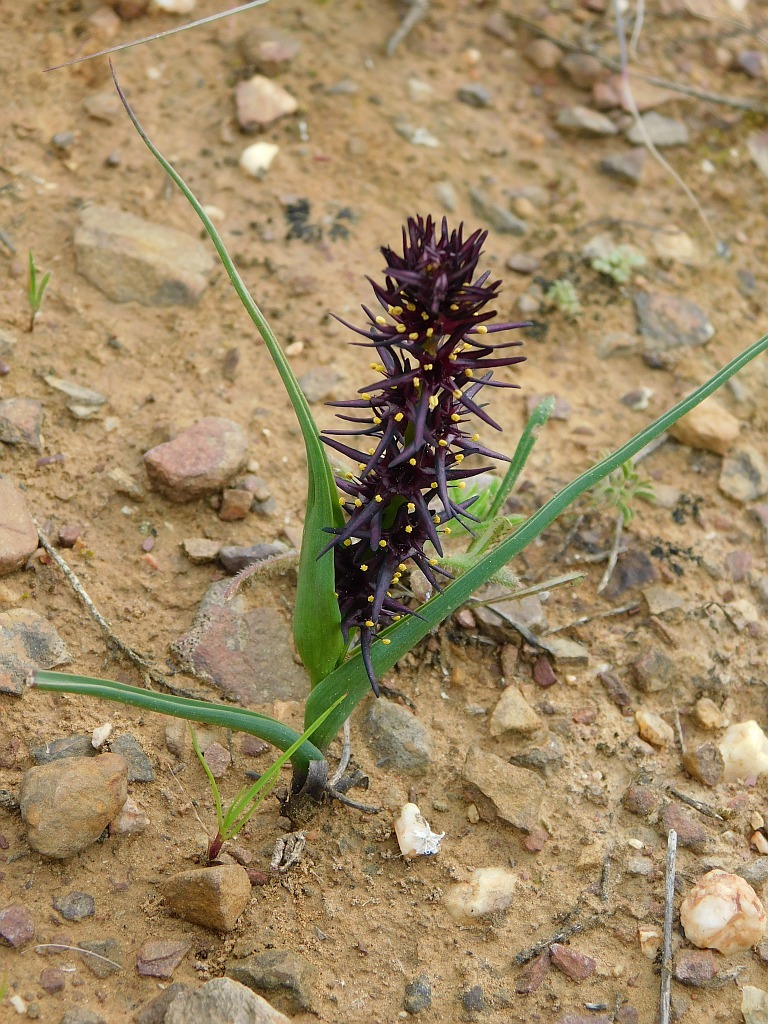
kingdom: Plantae
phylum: Tracheophyta
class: Liliopsida
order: Liliales
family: Colchicaceae
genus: Wurmbea
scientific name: Wurmbea marginata
